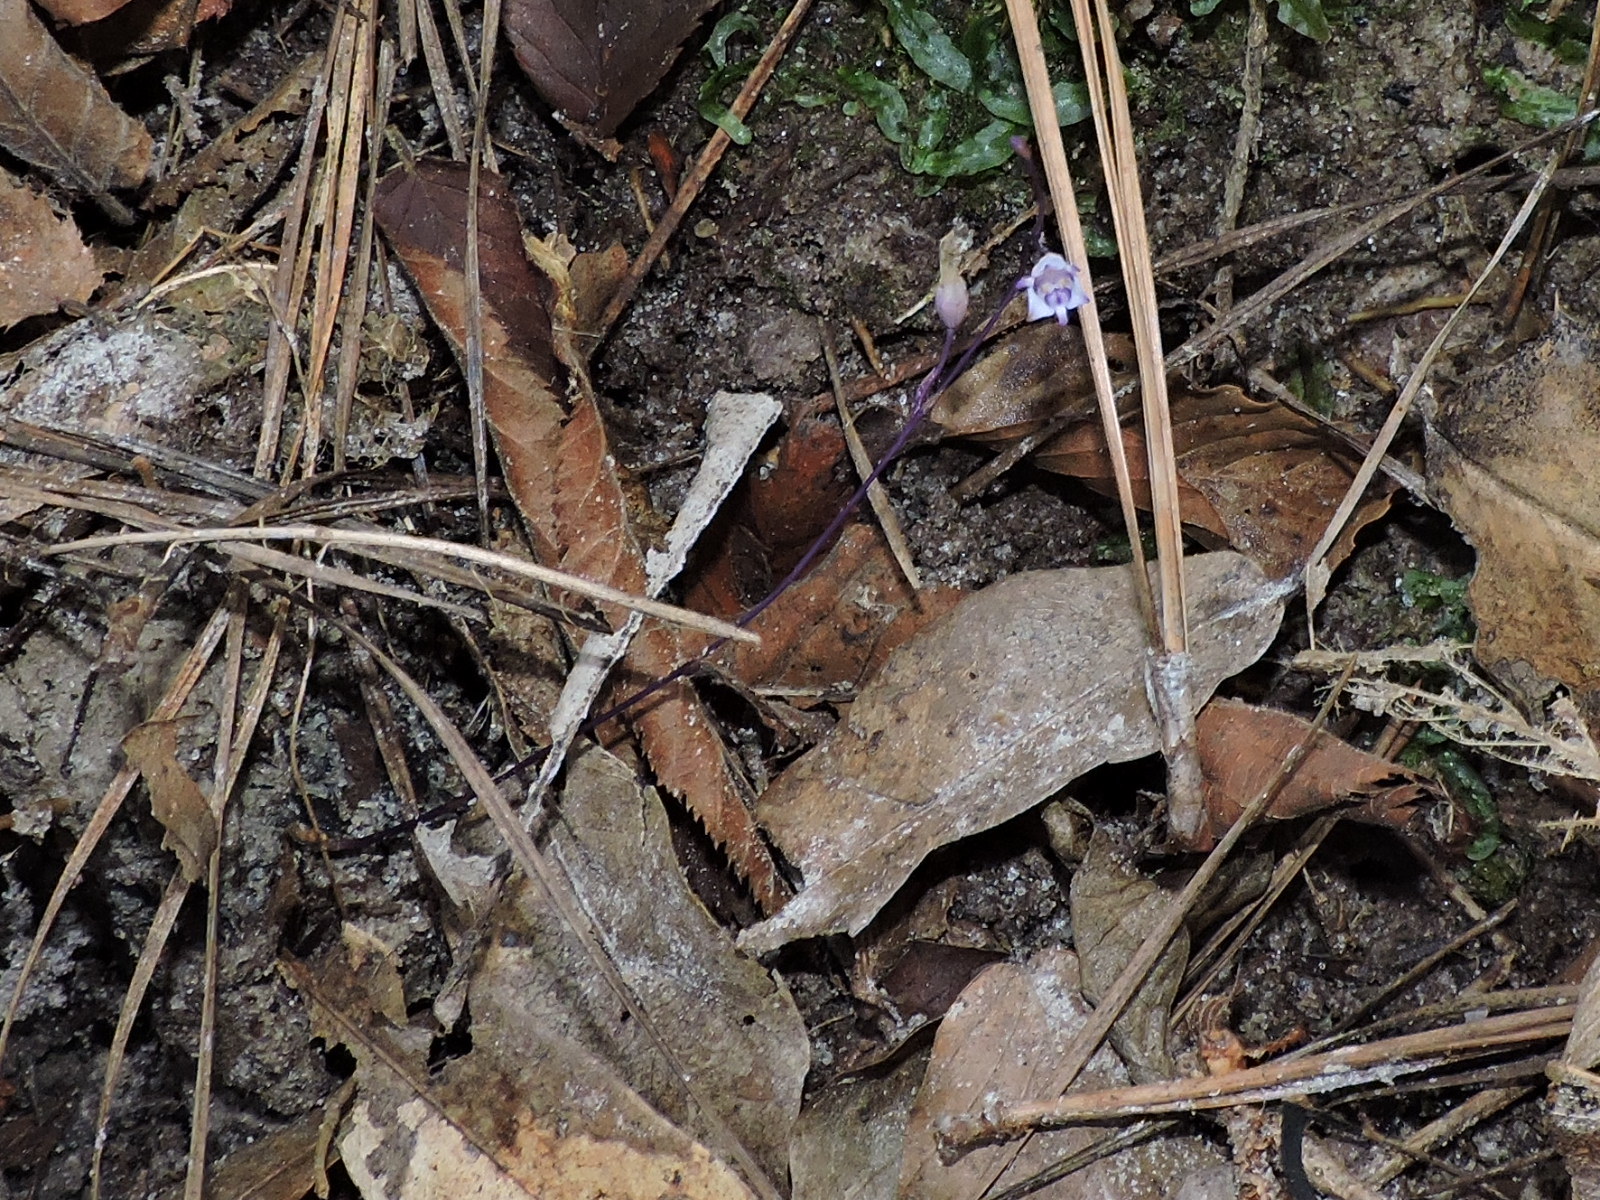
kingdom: Plantae
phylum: Tracheophyta
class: Liliopsida
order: Dioscoreales
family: Burmanniaceae
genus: Apteria
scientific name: Apteria aphylla
